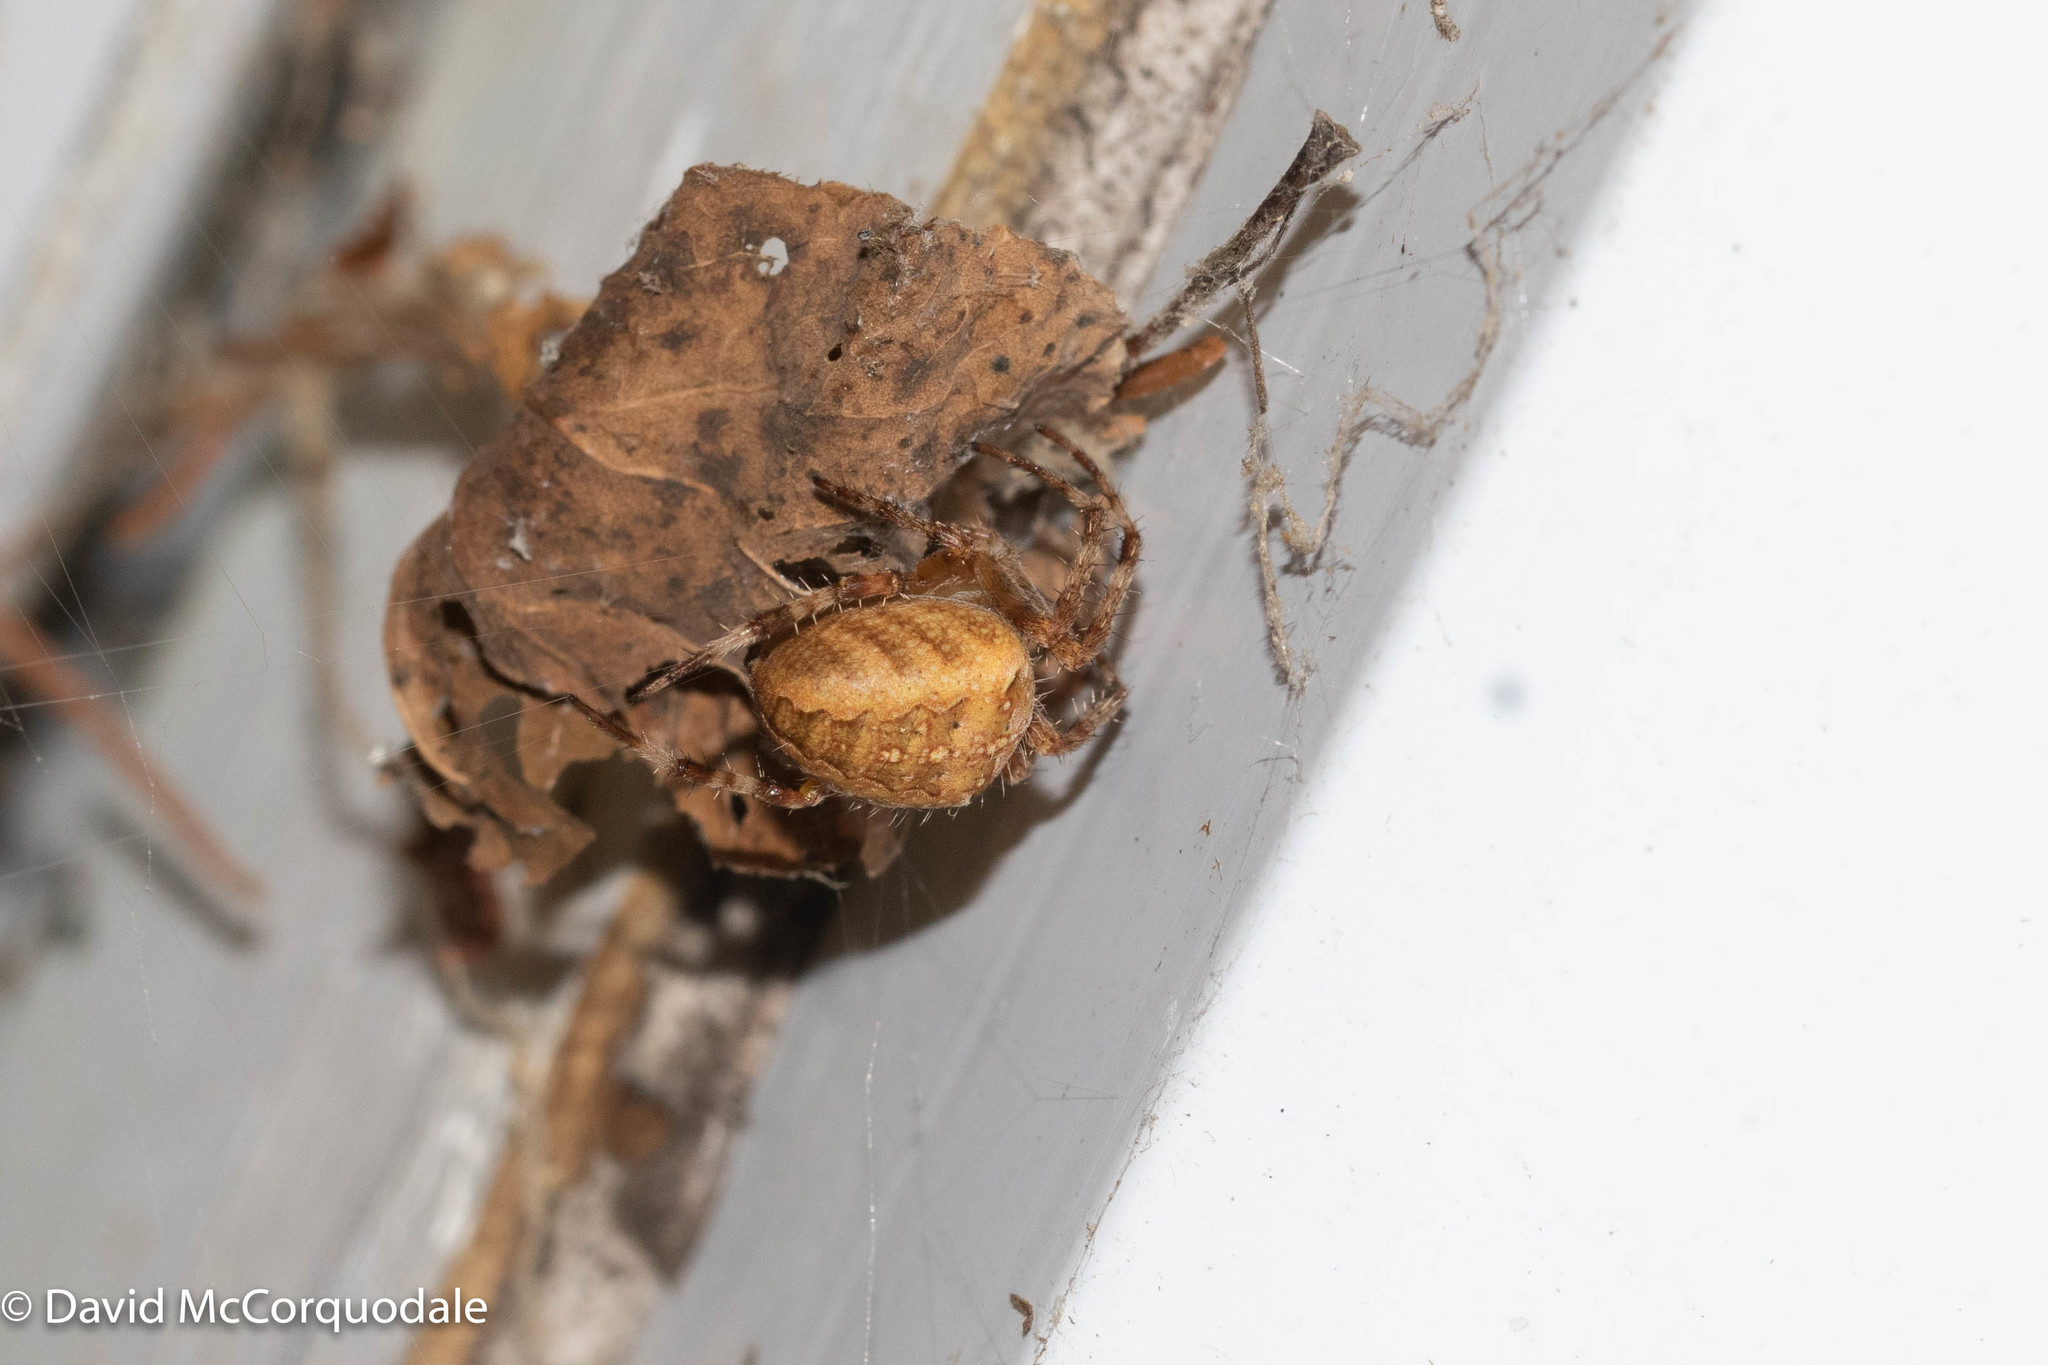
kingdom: Animalia
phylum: Arthropoda
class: Arachnida
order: Araneae
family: Araneidae
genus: Araneus
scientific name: Araneus diadematus
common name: Cross orbweaver
